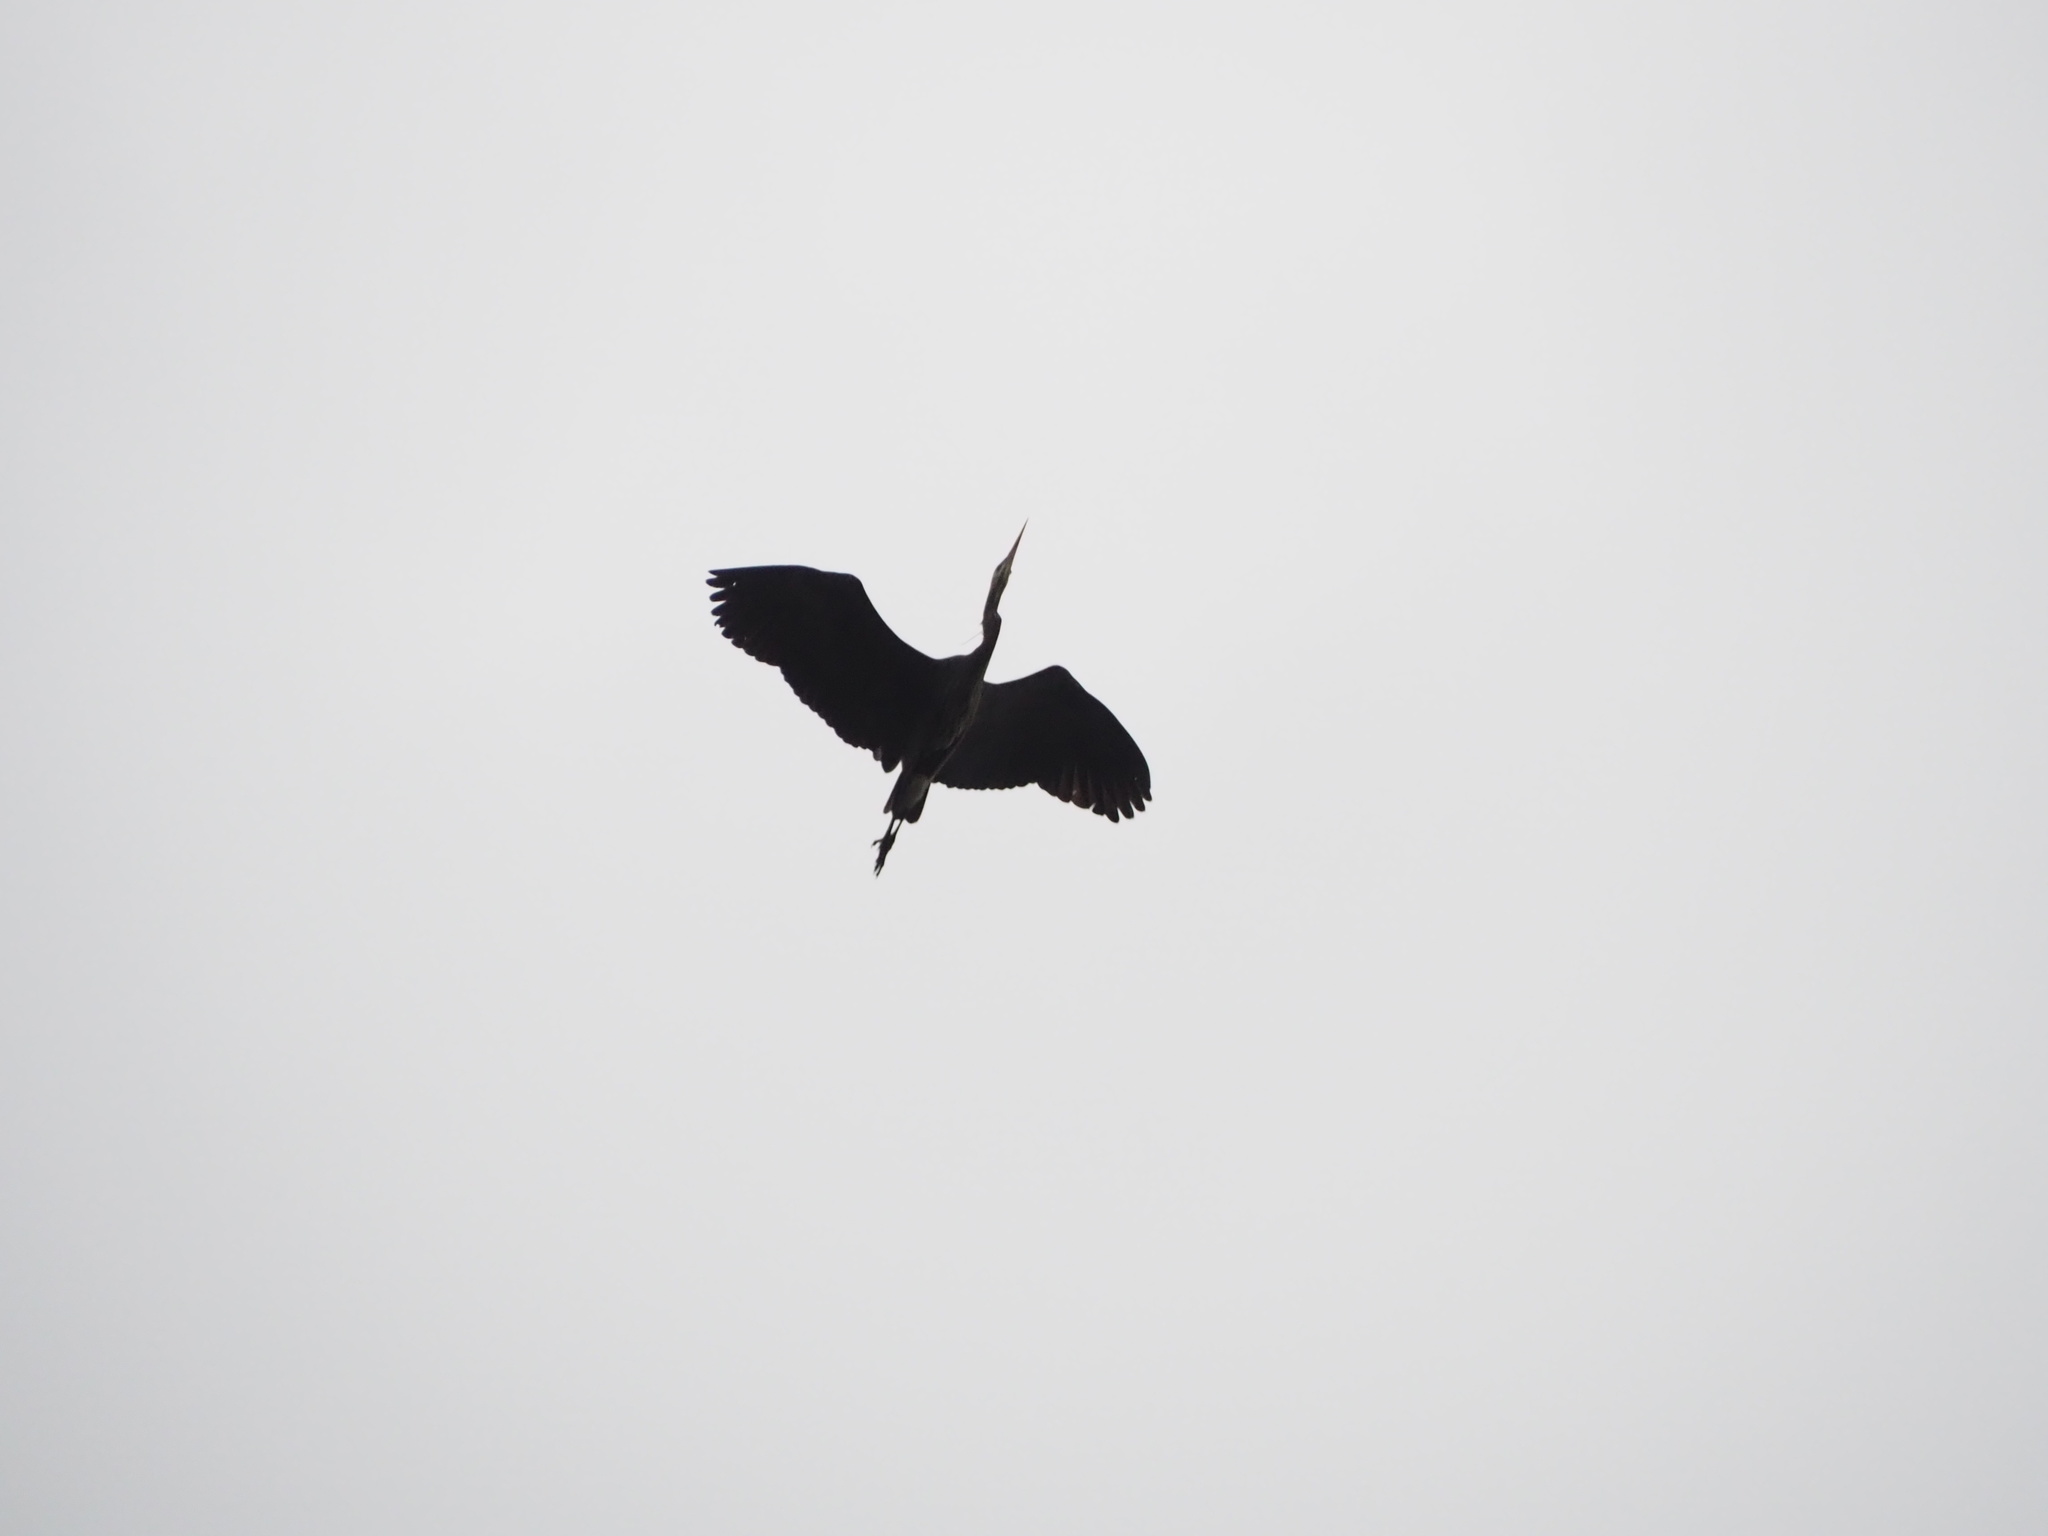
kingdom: Animalia
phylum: Chordata
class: Aves
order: Pelecaniformes
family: Ardeidae
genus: Ardea
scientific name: Ardea herodias
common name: Great blue heron
